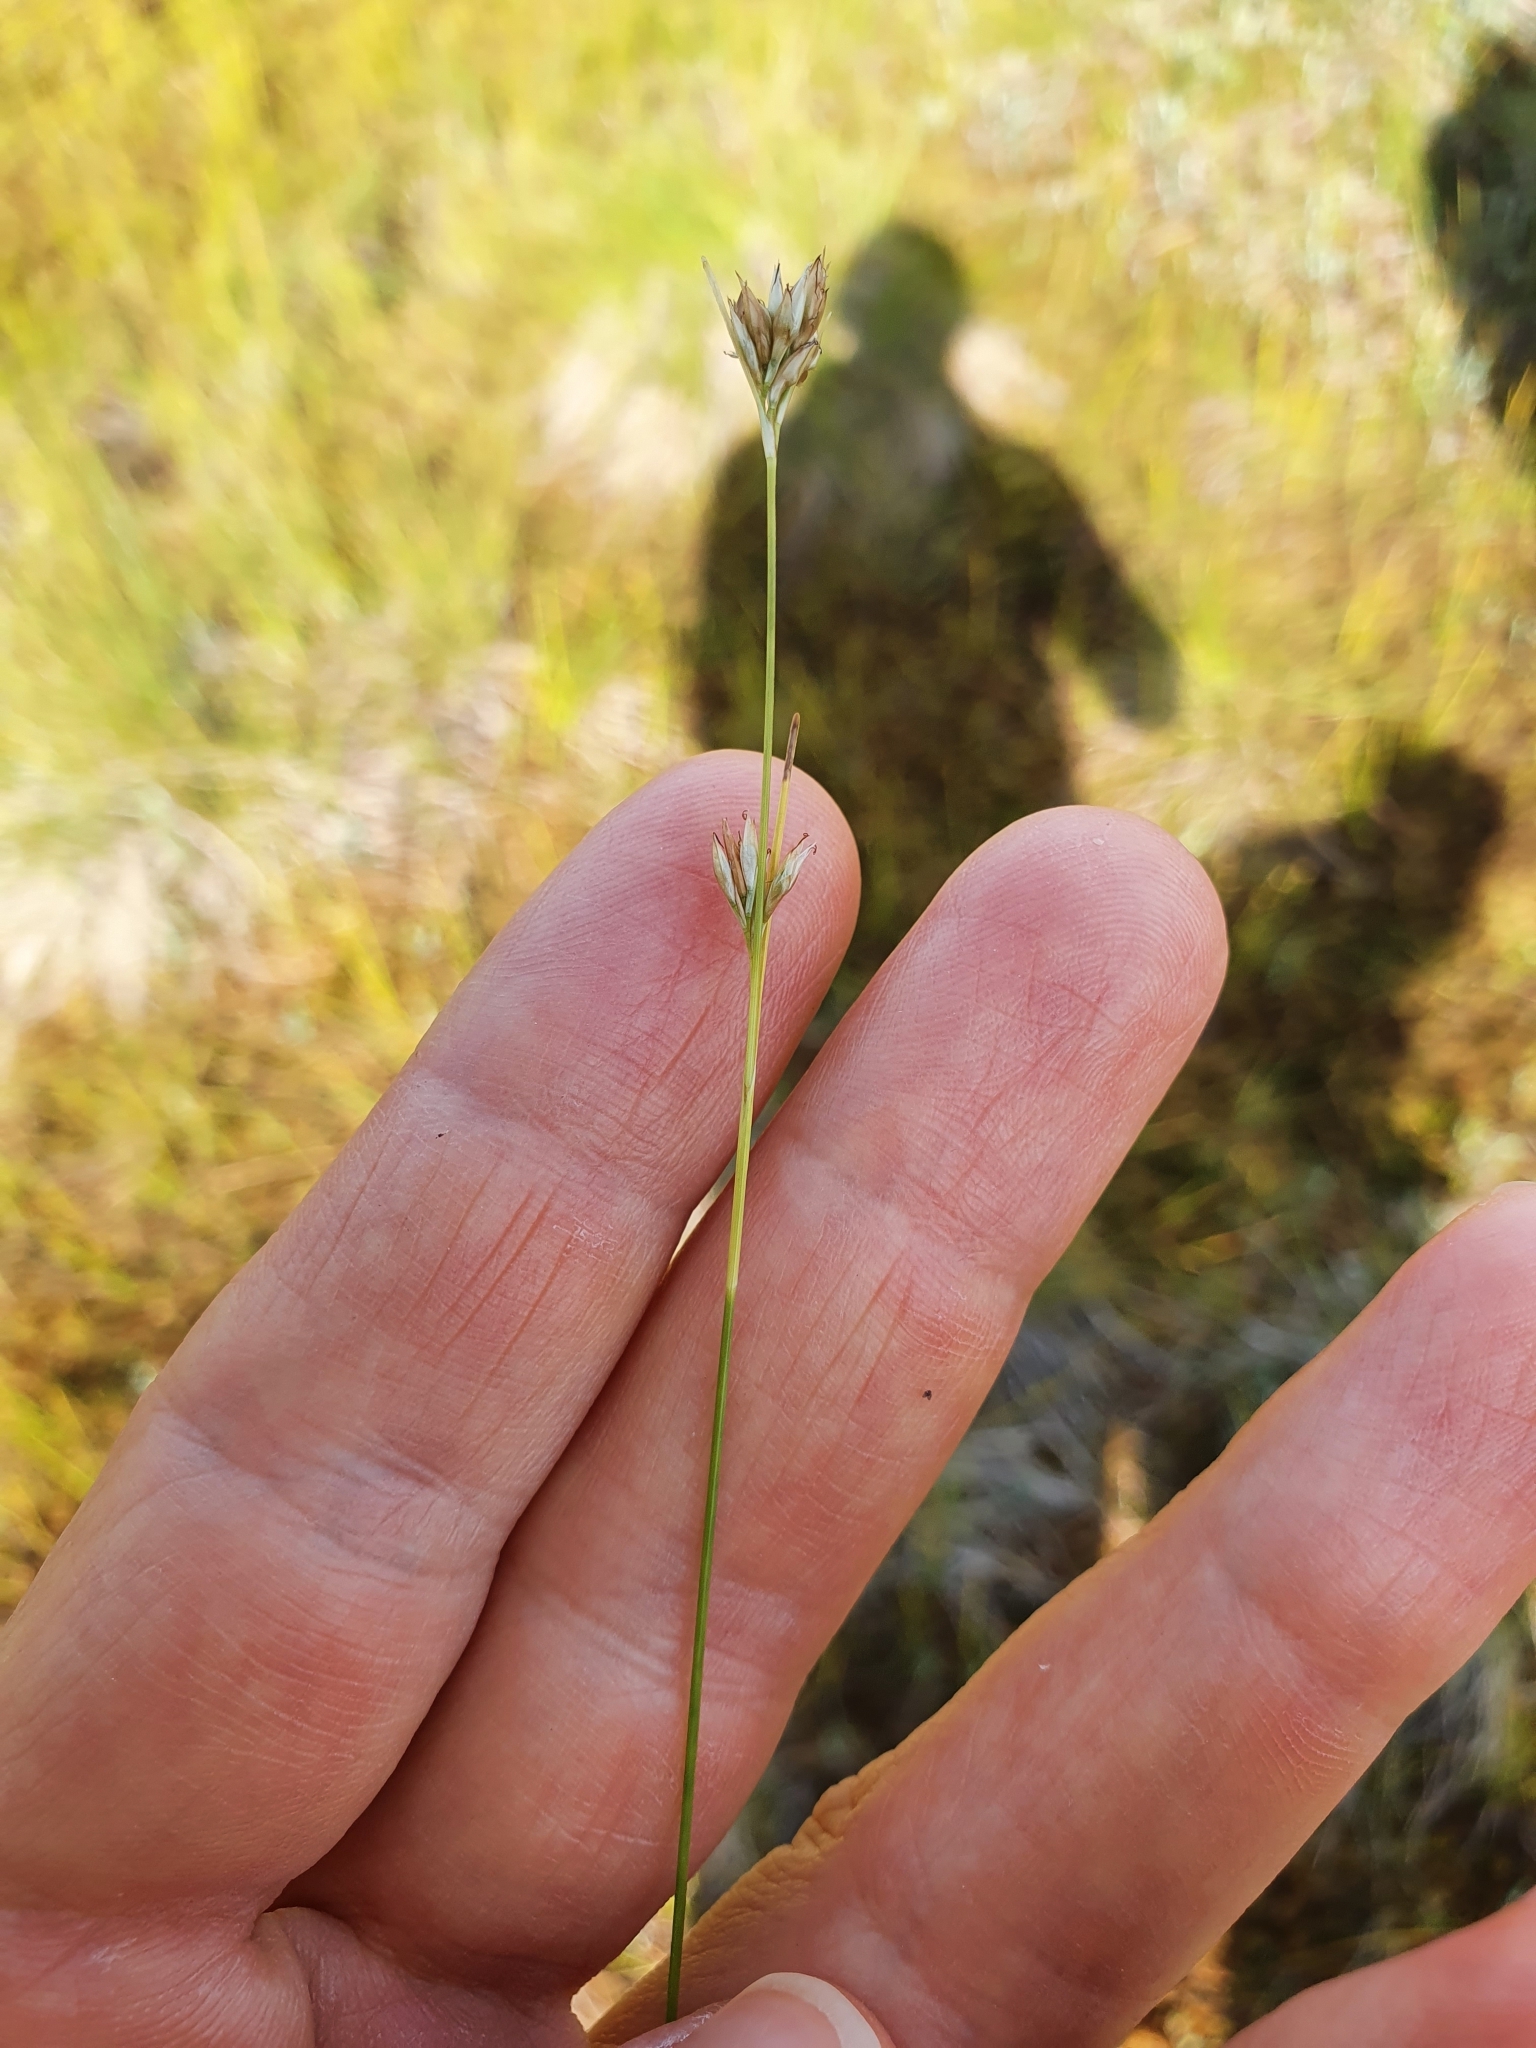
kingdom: Plantae
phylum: Tracheophyta
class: Liliopsida
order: Poales
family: Cyperaceae
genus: Rhynchospora
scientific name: Rhynchospora alba
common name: White beak-sedge
